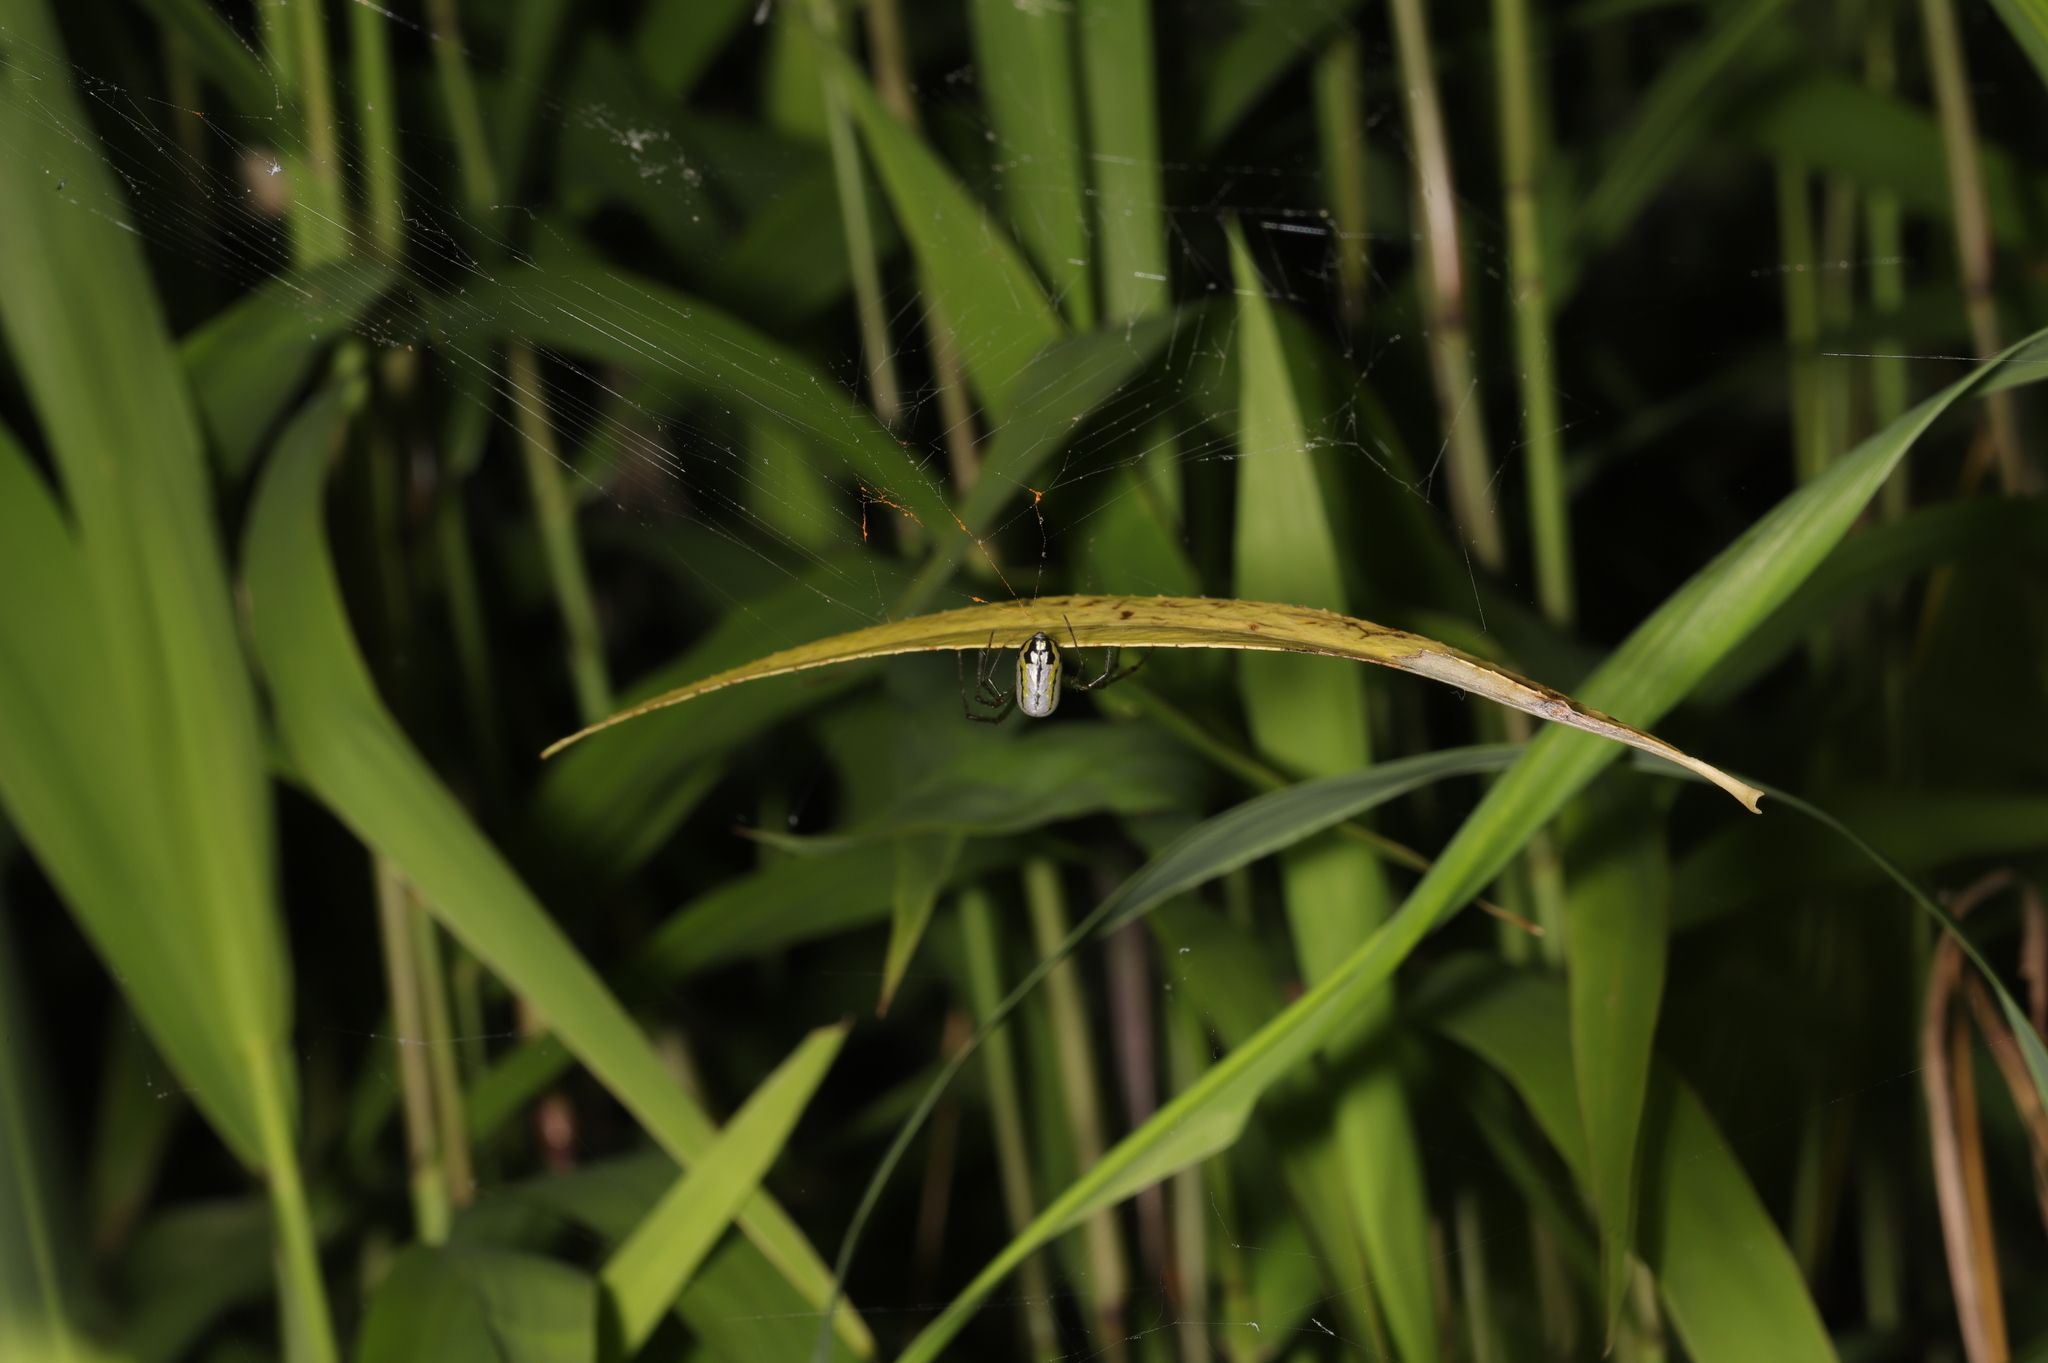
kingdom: Animalia
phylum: Arthropoda
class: Arachnida
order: Araneae
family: Tetragnathidae
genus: Leucauge
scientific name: Leucauge venusta
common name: Longjawed orb weavers
